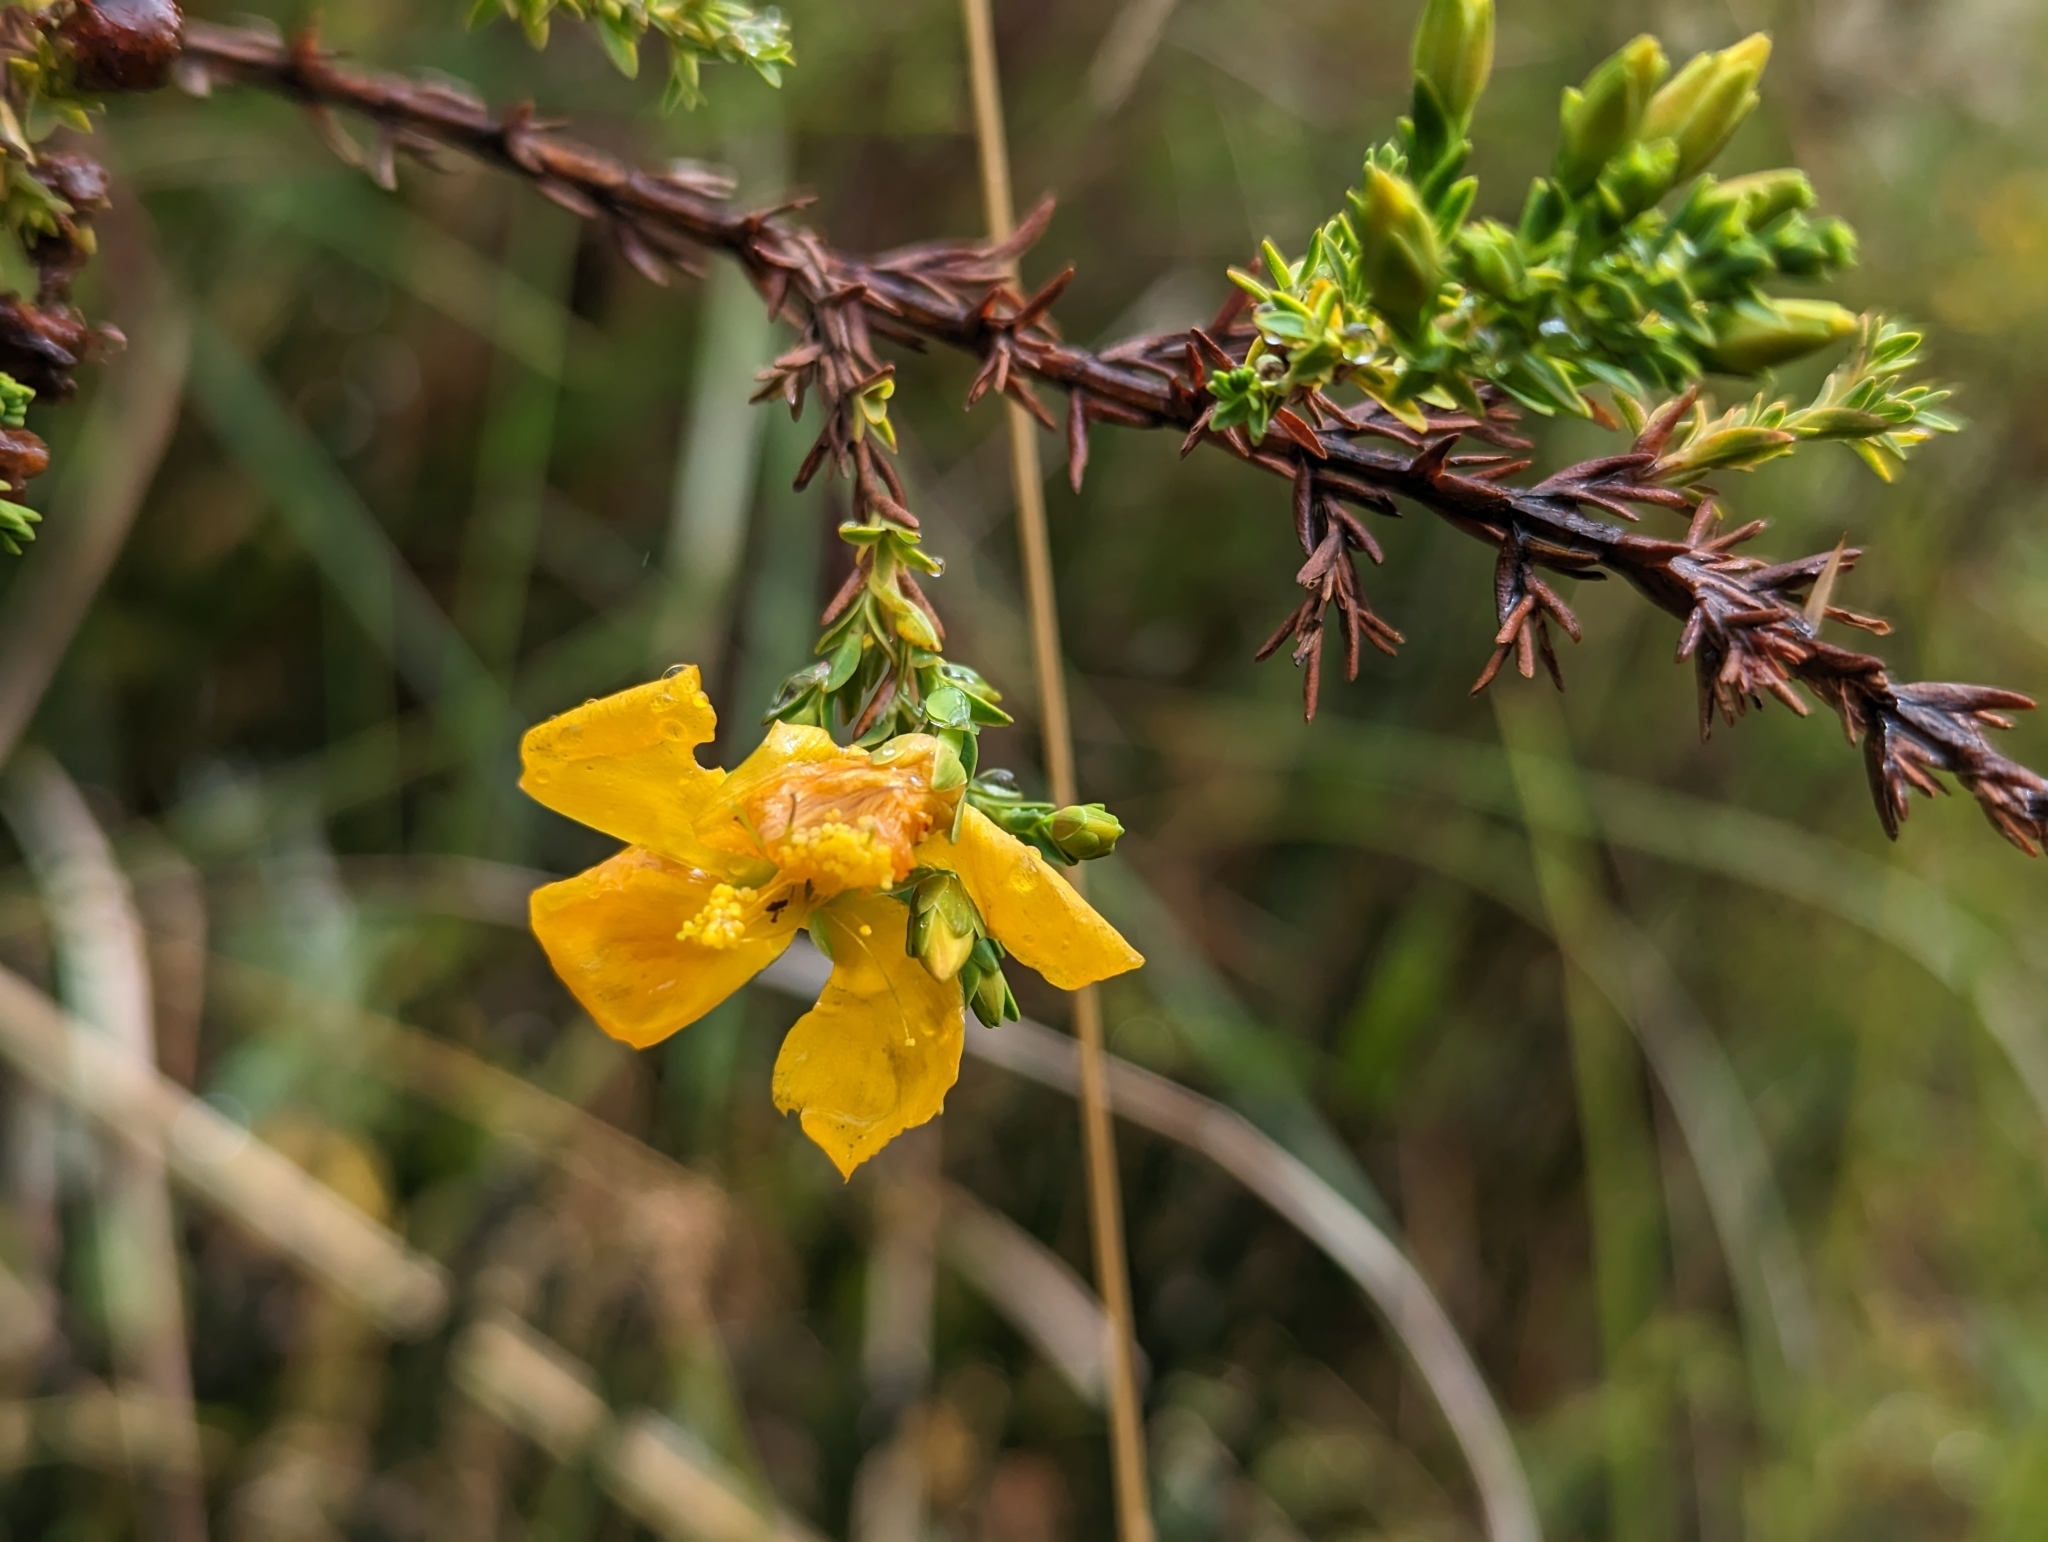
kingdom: Plantae
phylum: Tracheophyta
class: Magnoliopsida
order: Malpighiales
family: Hypericaceae
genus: Hypericum
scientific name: Hypericum laricifolium
